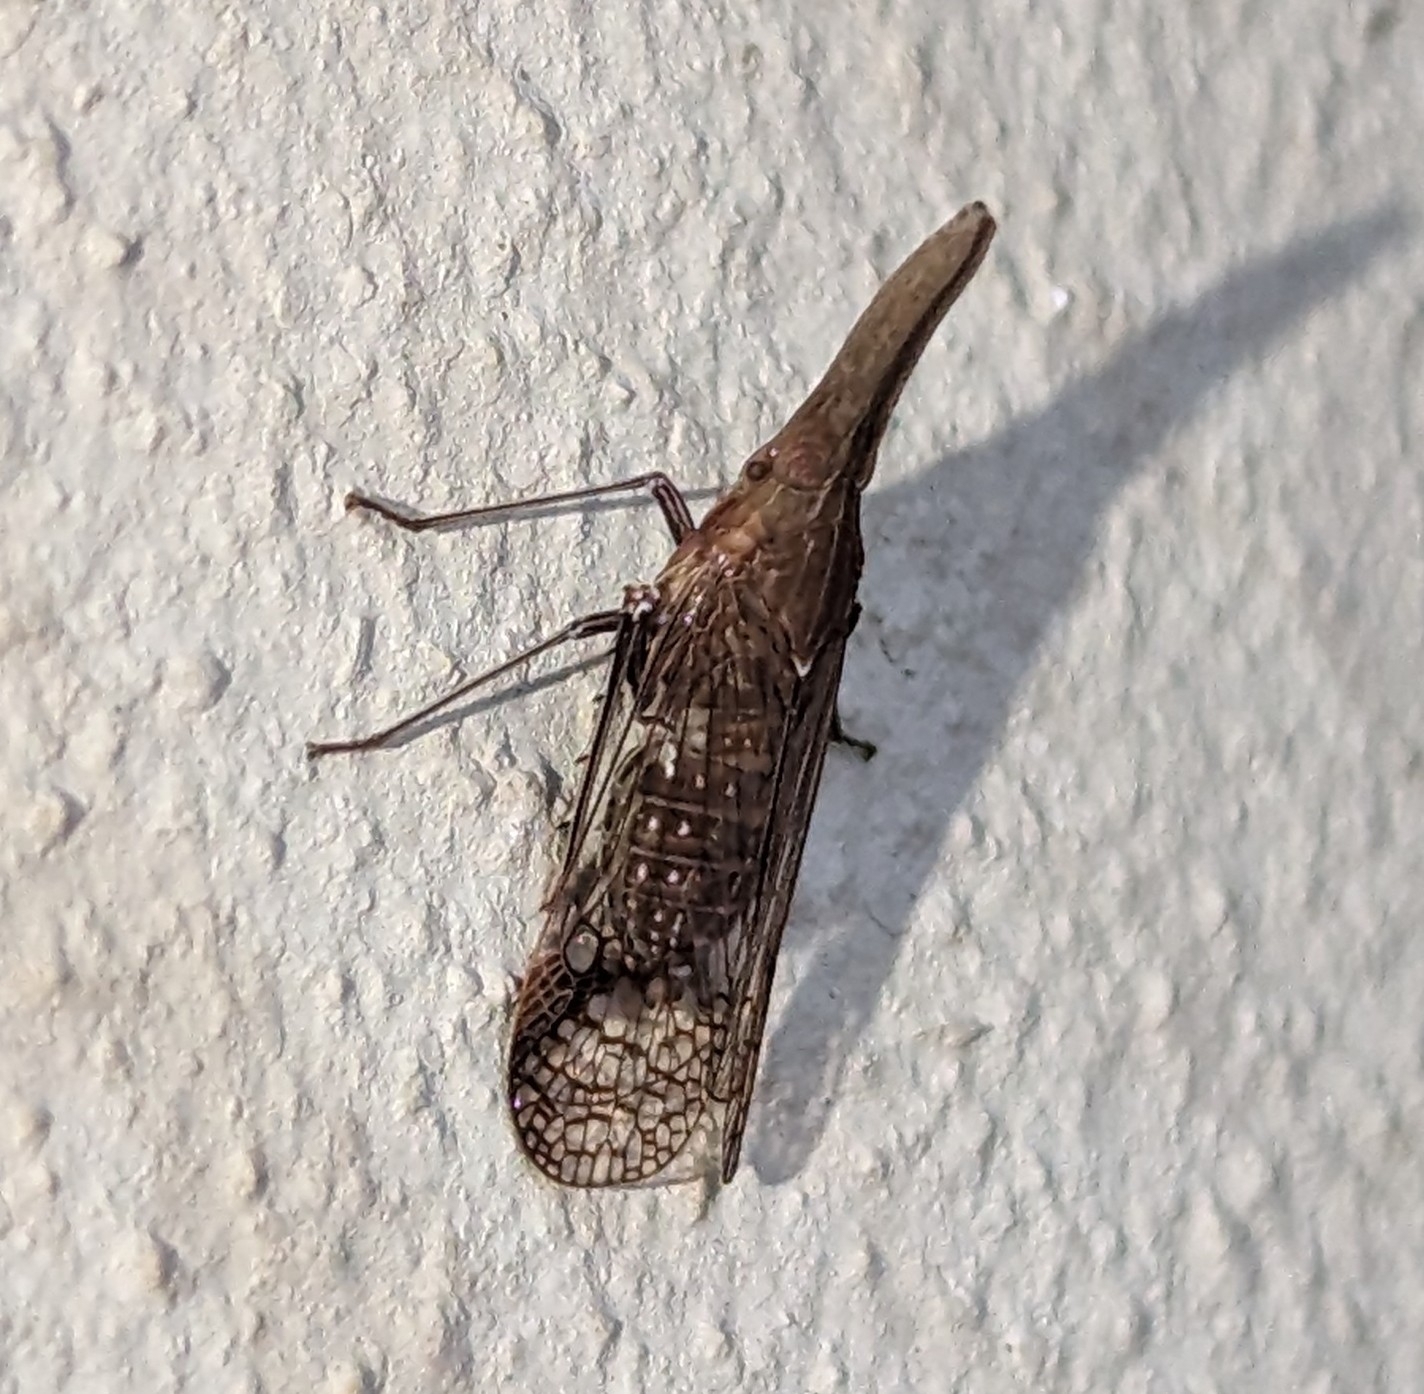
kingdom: Animalia
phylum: Arthropoda
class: Insecta
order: Hemiptera
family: Dictyopharidae
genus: Philotheria
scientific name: Philotheria vinula
